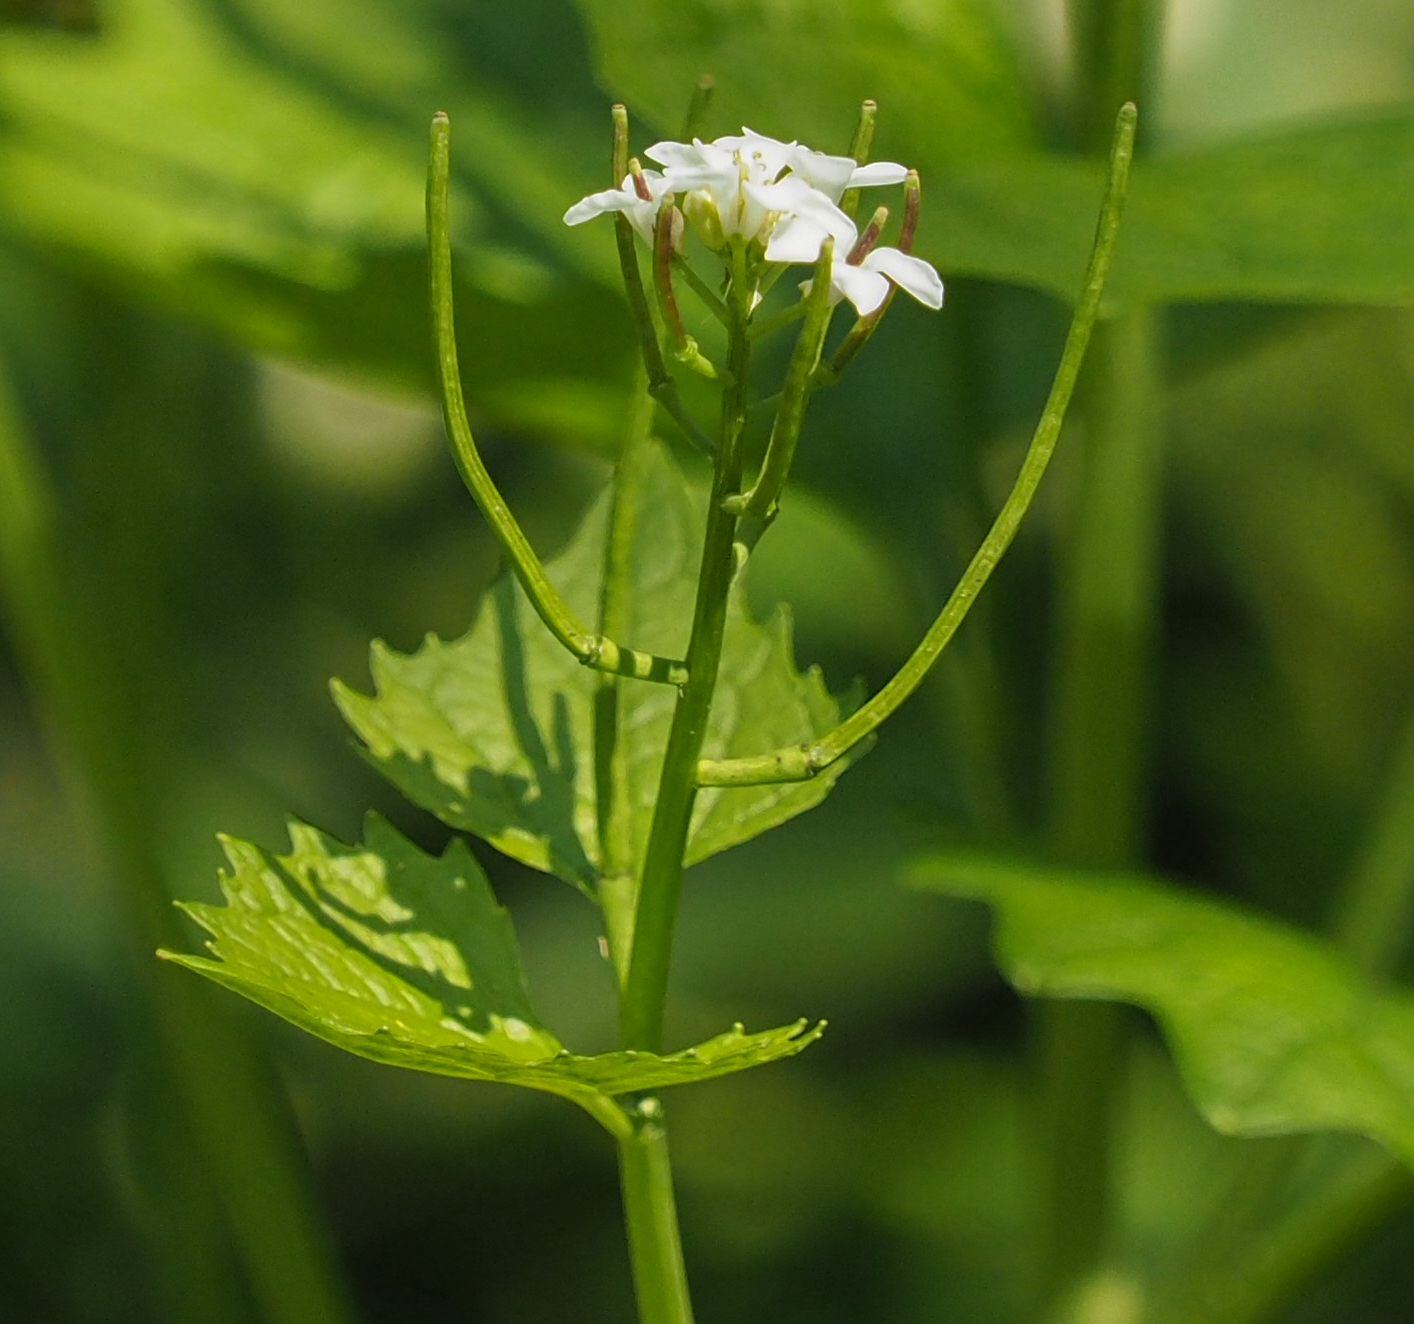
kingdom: Plantae
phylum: Tracheophyta
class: Magnoliopsida
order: Brassicales
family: Brassicaceae
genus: Alliaria
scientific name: Alliaria petiolata
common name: Garlic mustard
